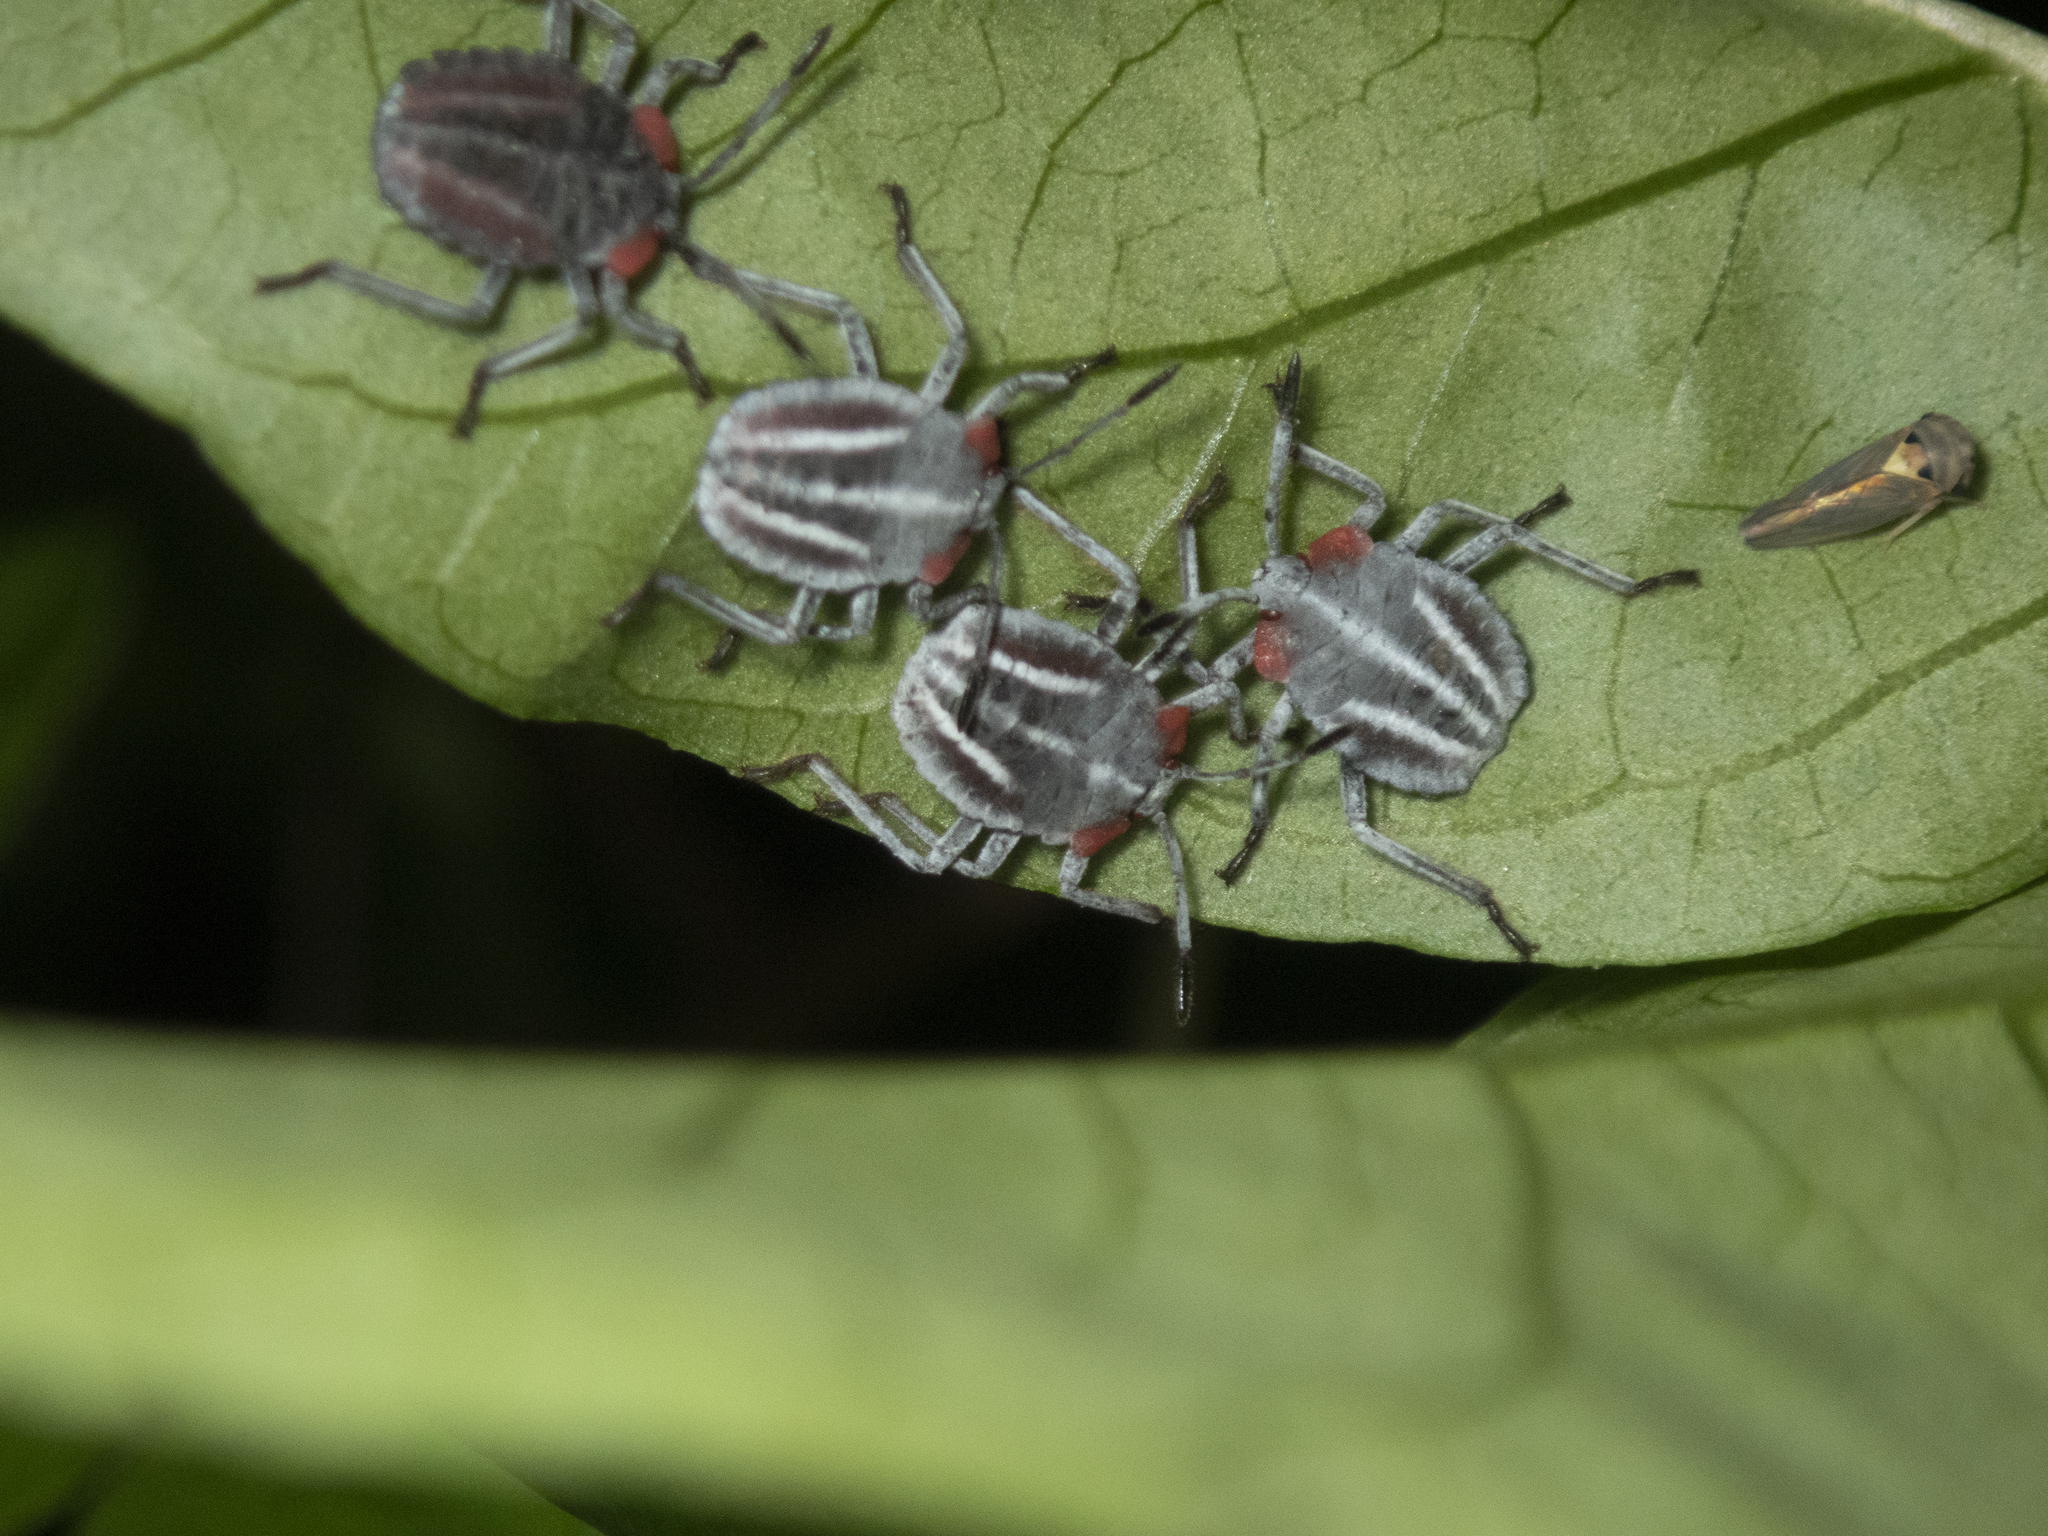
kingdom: Animalia
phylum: Arthropoda
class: Insecta
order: Hemiptera
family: Tessaratomidae
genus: Tessaratoma
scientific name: Tessaratoma papillosa
